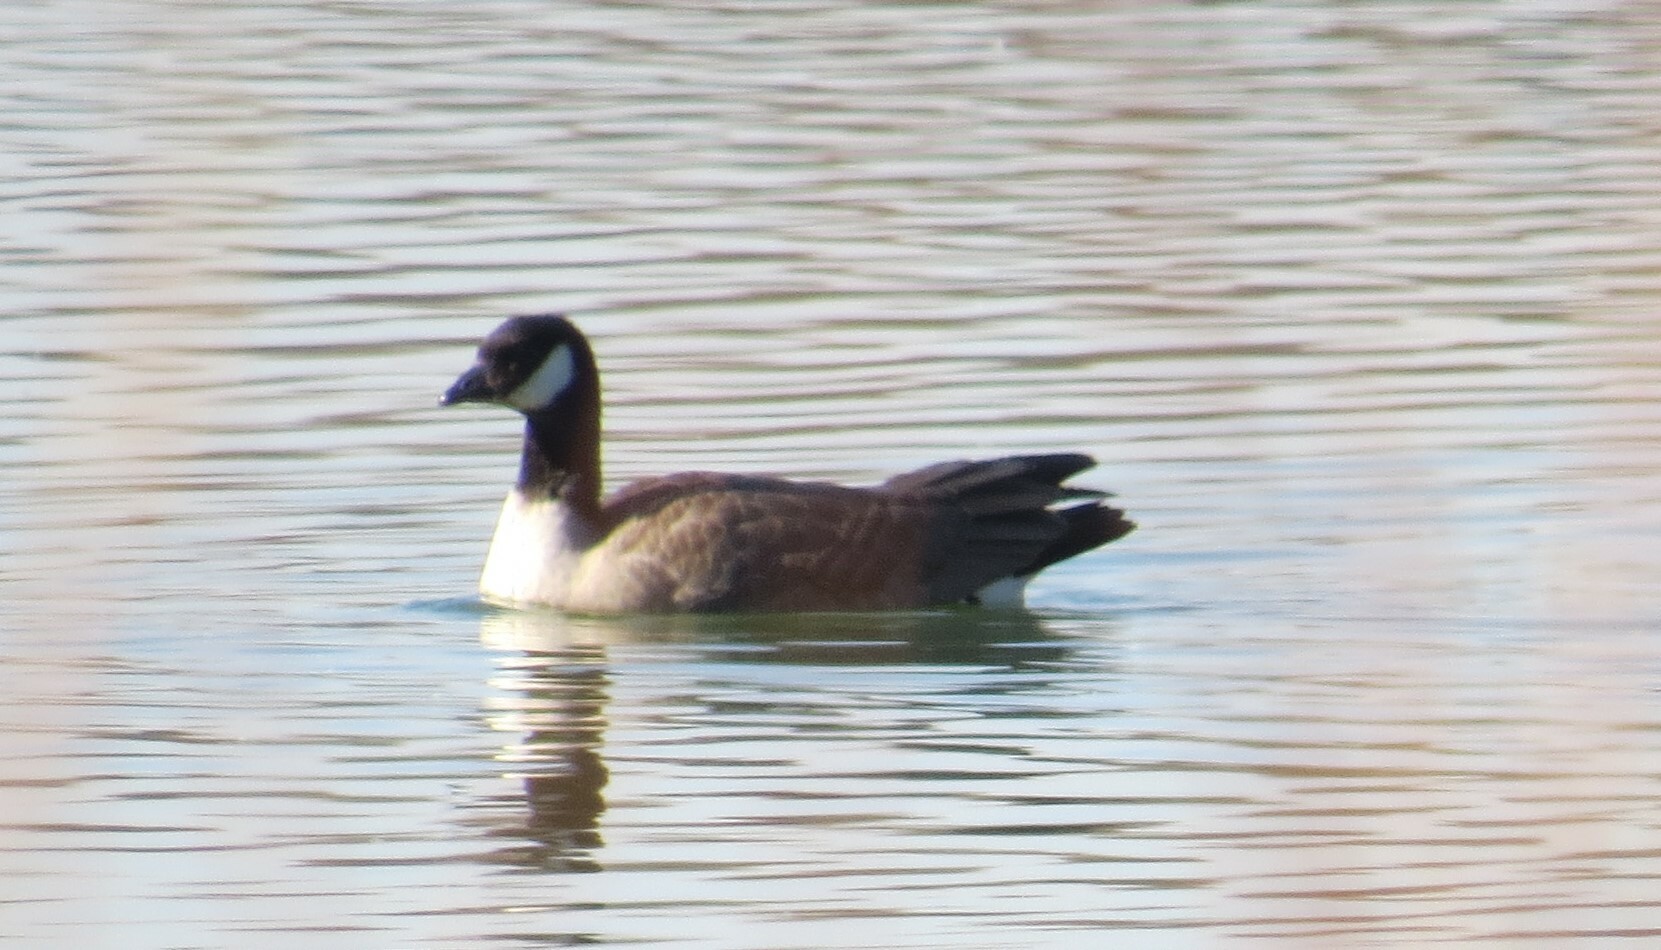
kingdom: Animalia
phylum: Chordata
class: Aves
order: Anseriformes
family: Anatidae
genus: Branta
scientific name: Branta hutchinsii
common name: Cackling goose
